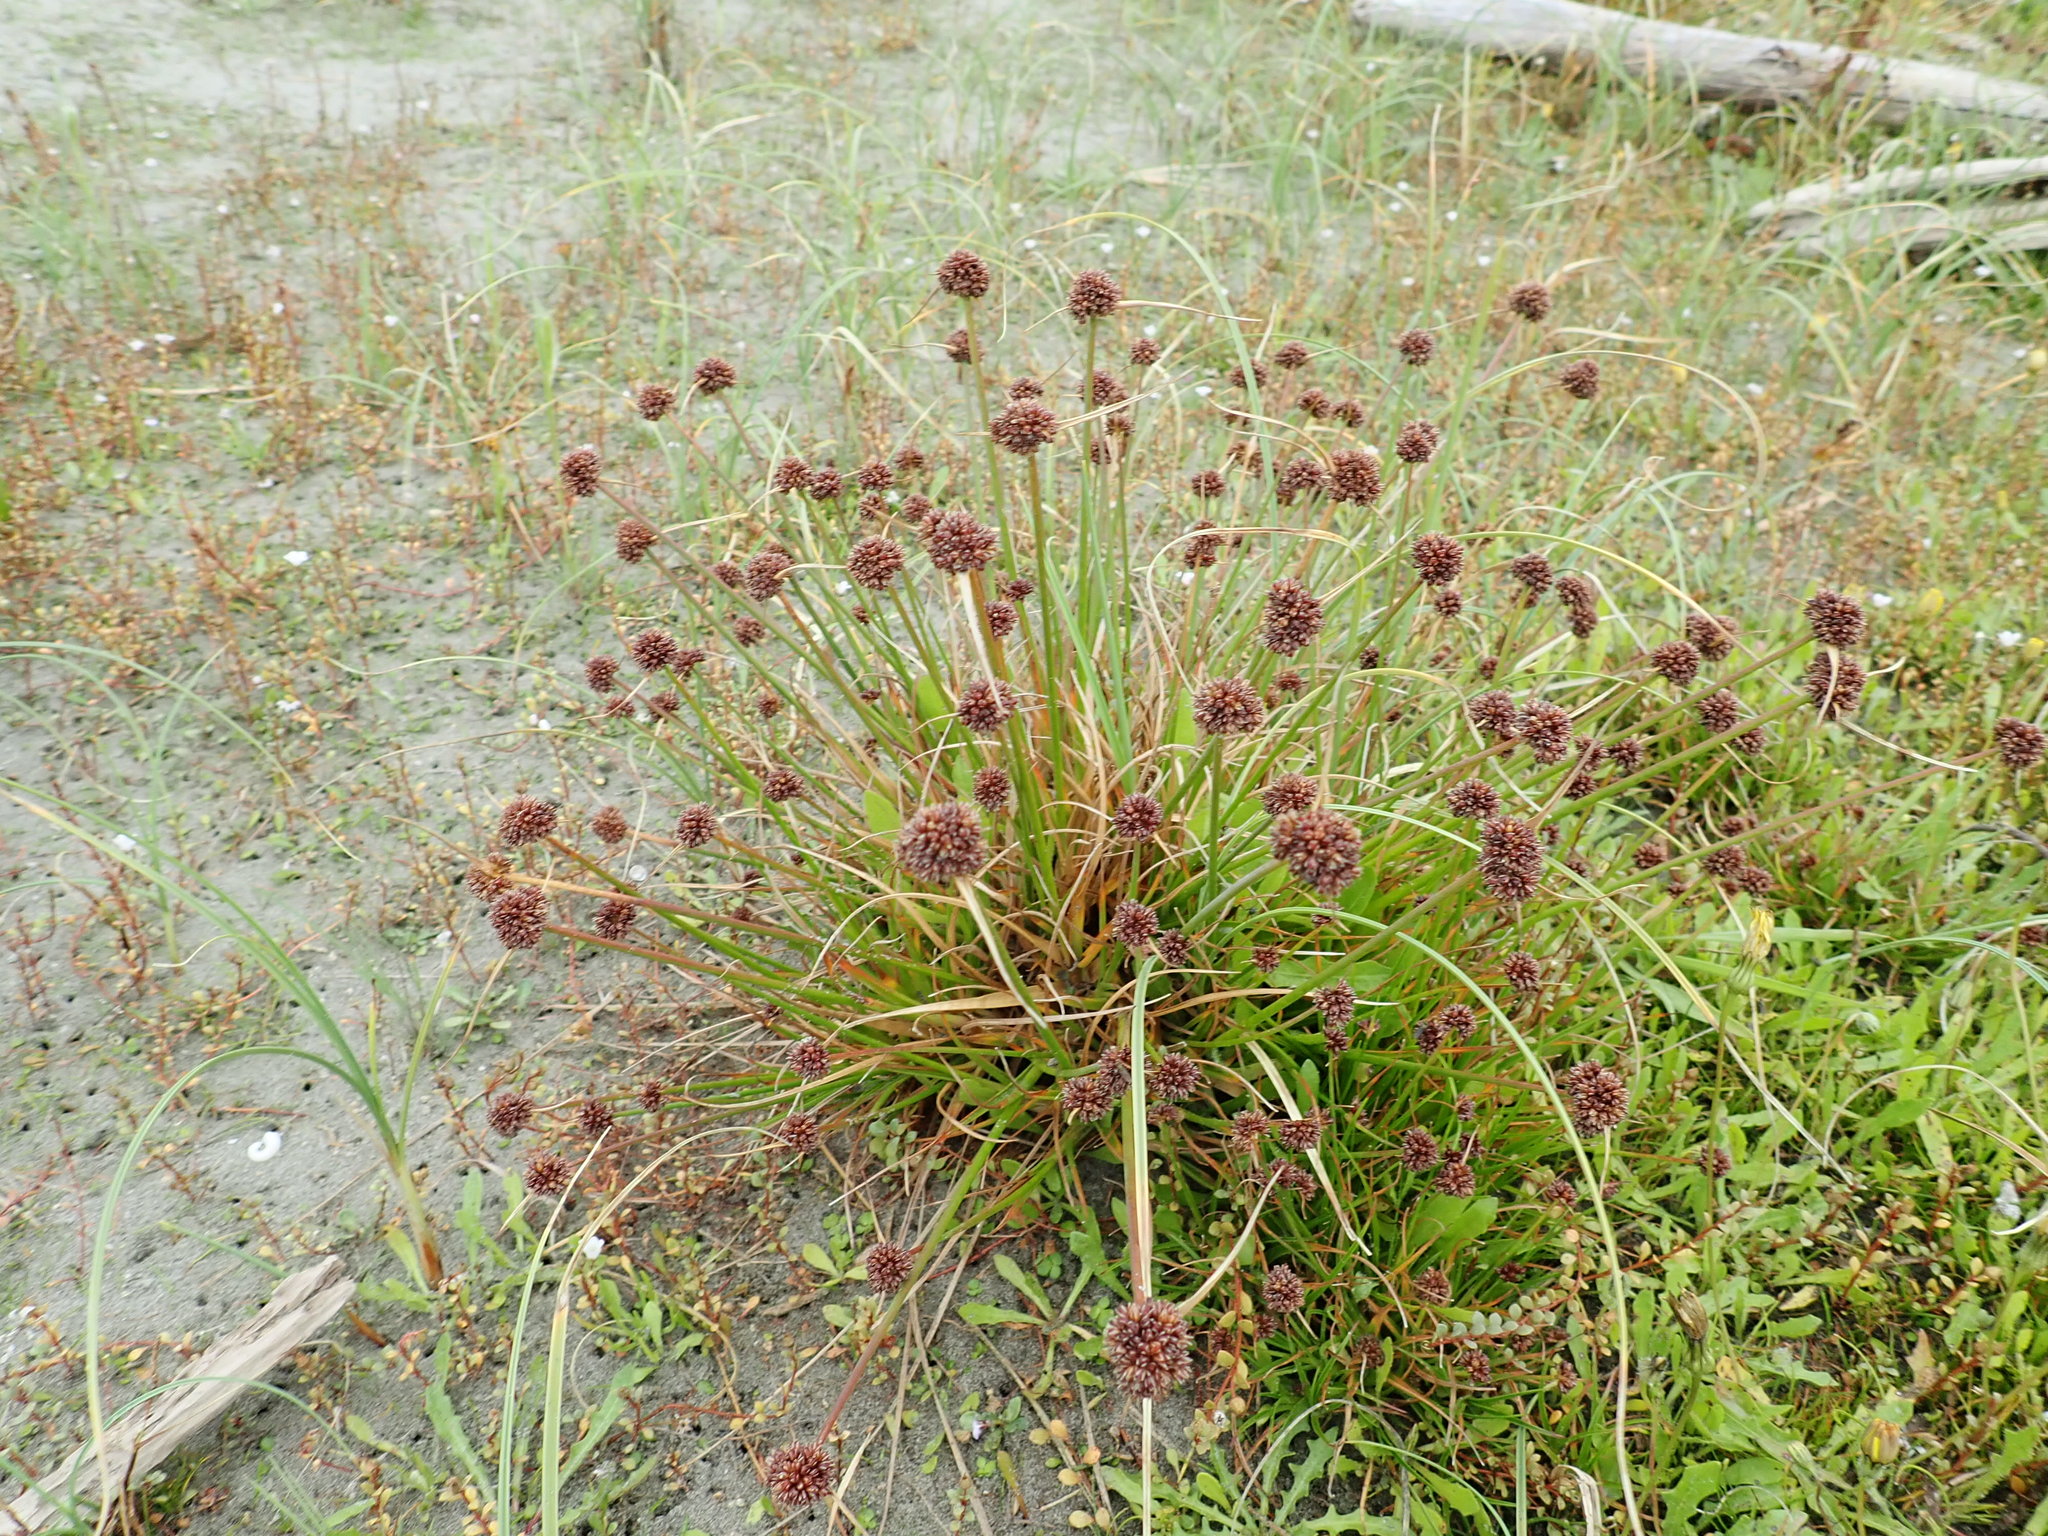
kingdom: Plantae
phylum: Tracheophyta
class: Liliopsida
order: Poales
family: Juncaceae
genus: Juncus
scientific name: Juncus caespiticius
